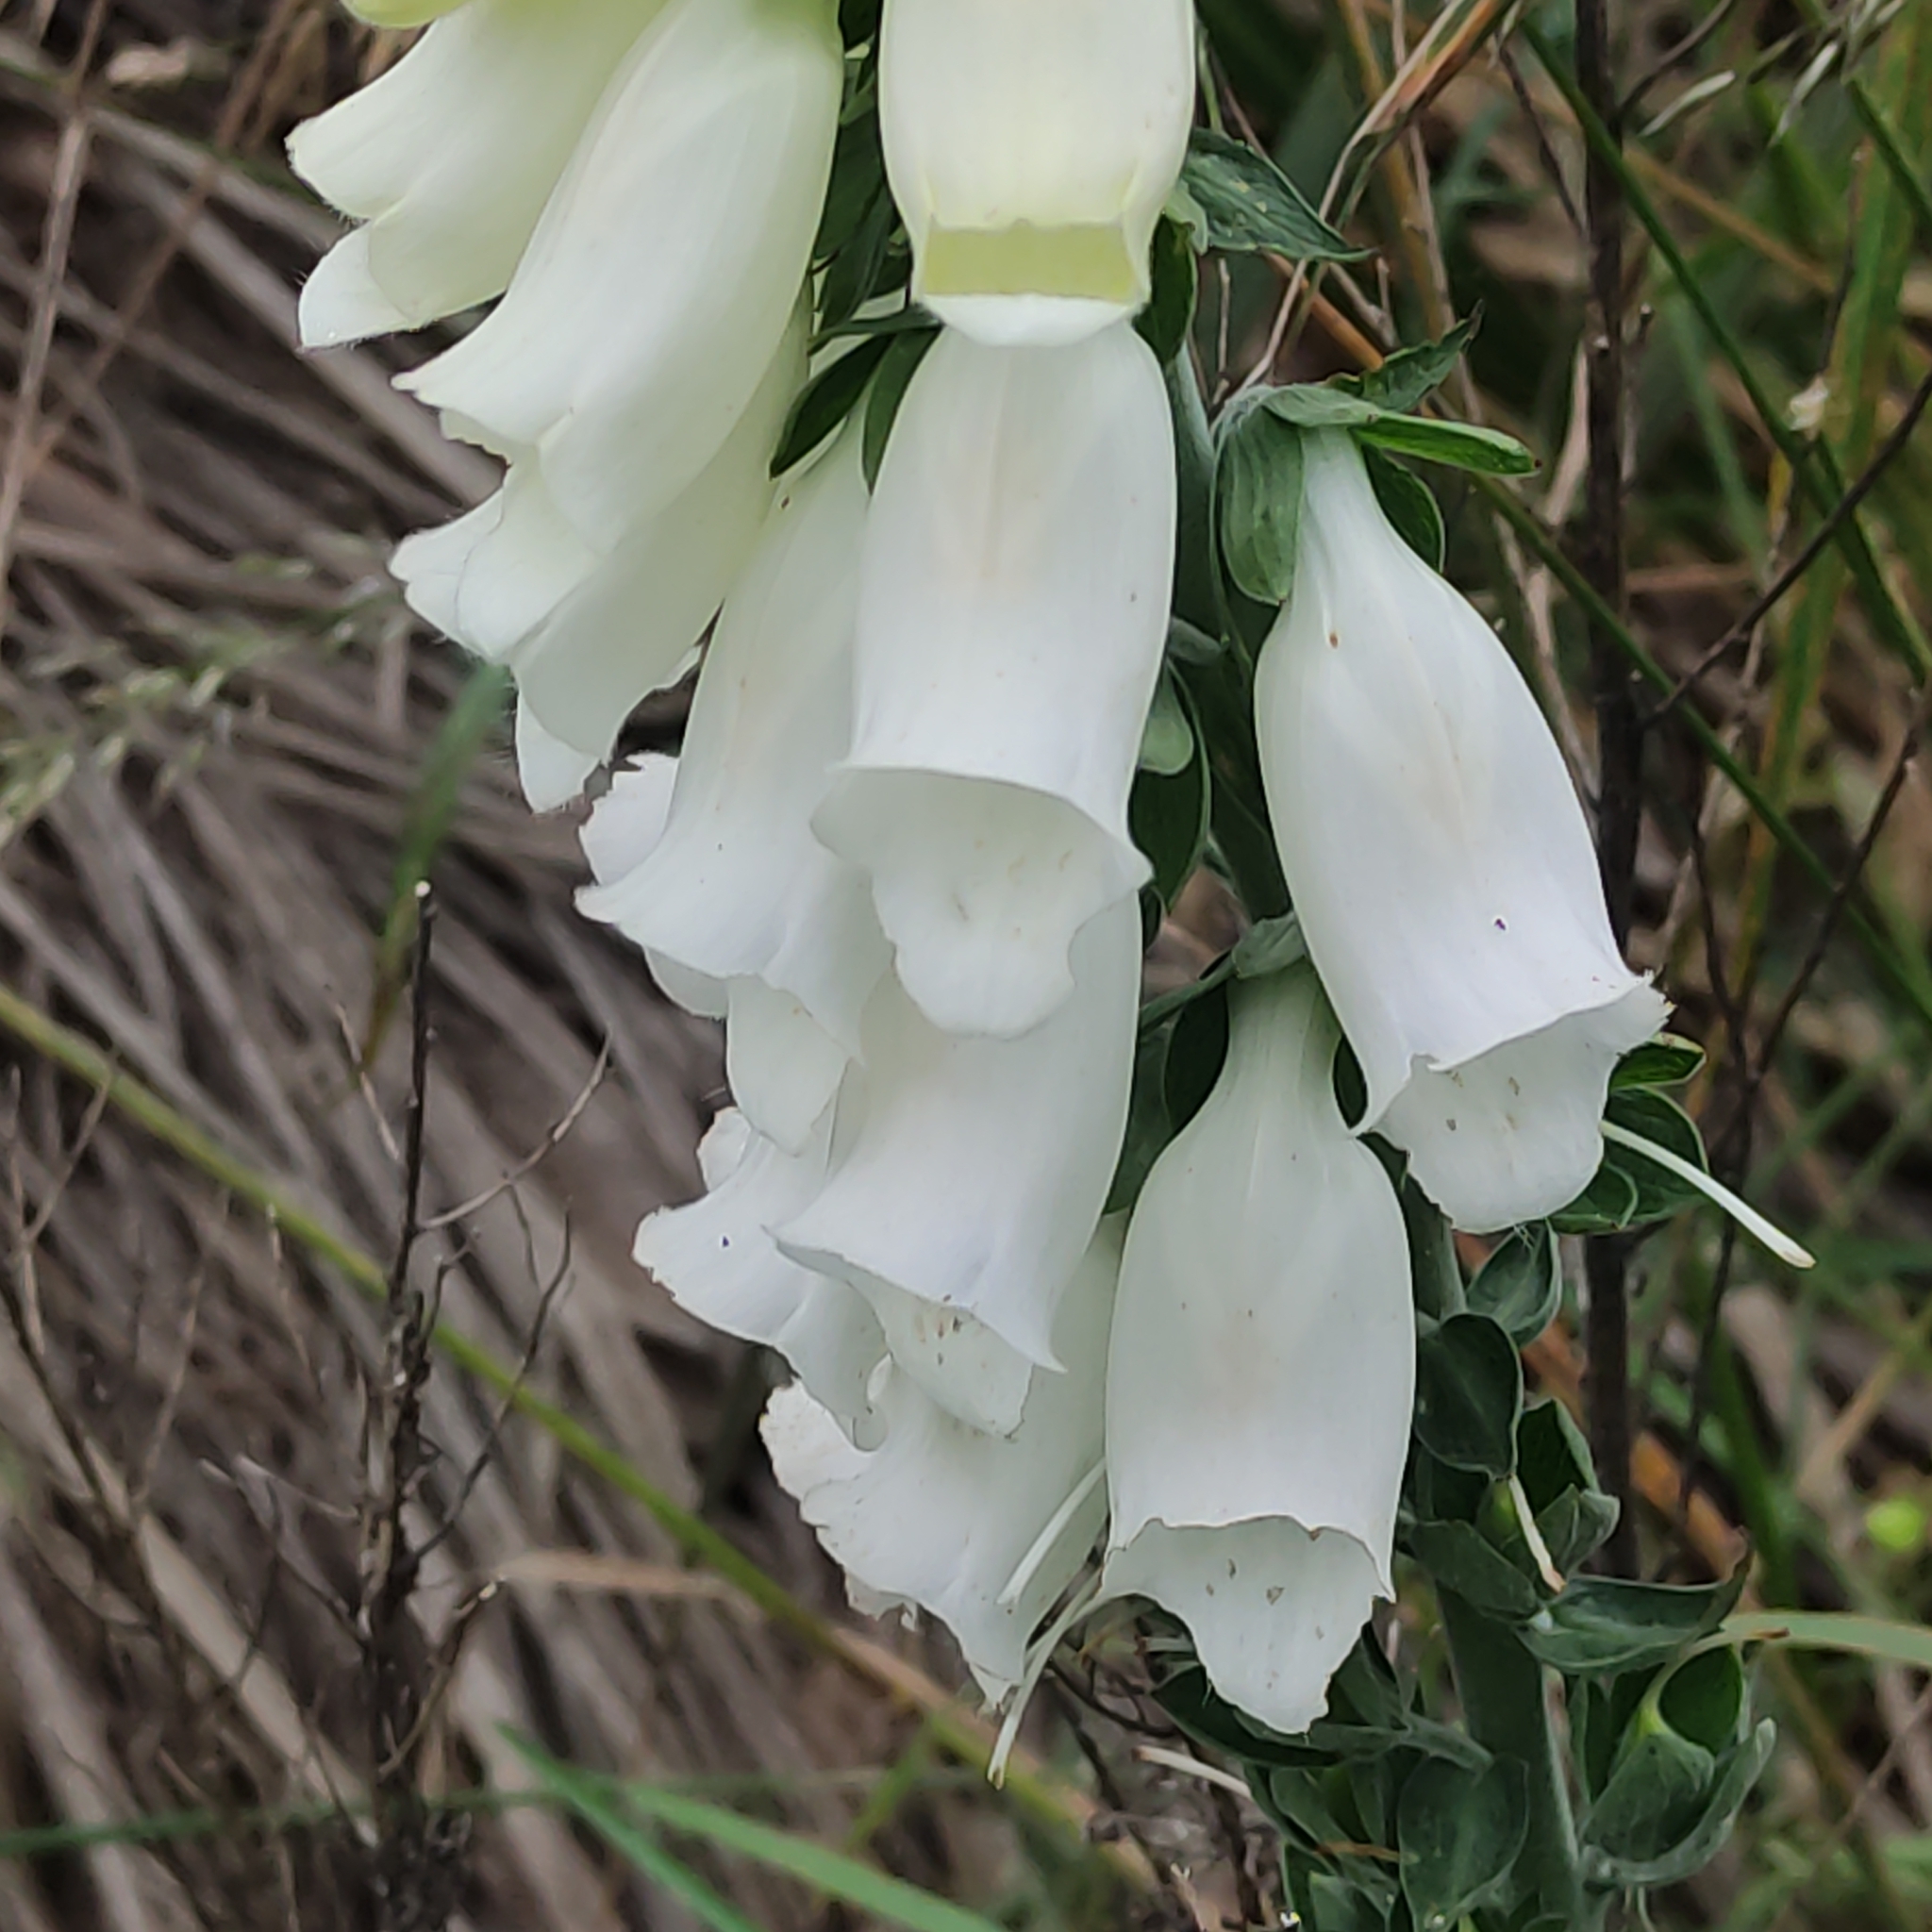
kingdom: Plantae
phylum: Tracheophyta
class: Magnoliopsida
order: Lamiales
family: Plantaginaceae
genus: Digitalis
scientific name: Digitalis purpurea
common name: Foxglove
